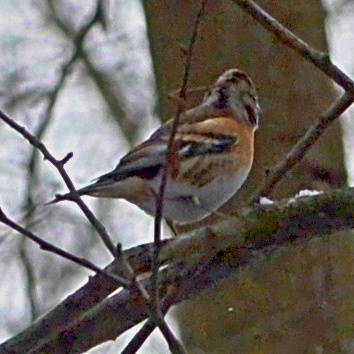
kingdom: Animalia
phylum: Chordata
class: Aves
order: Passeriformes
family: Fringillidae
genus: Fringilla
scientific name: Fringilla montifringilla
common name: Brambling
